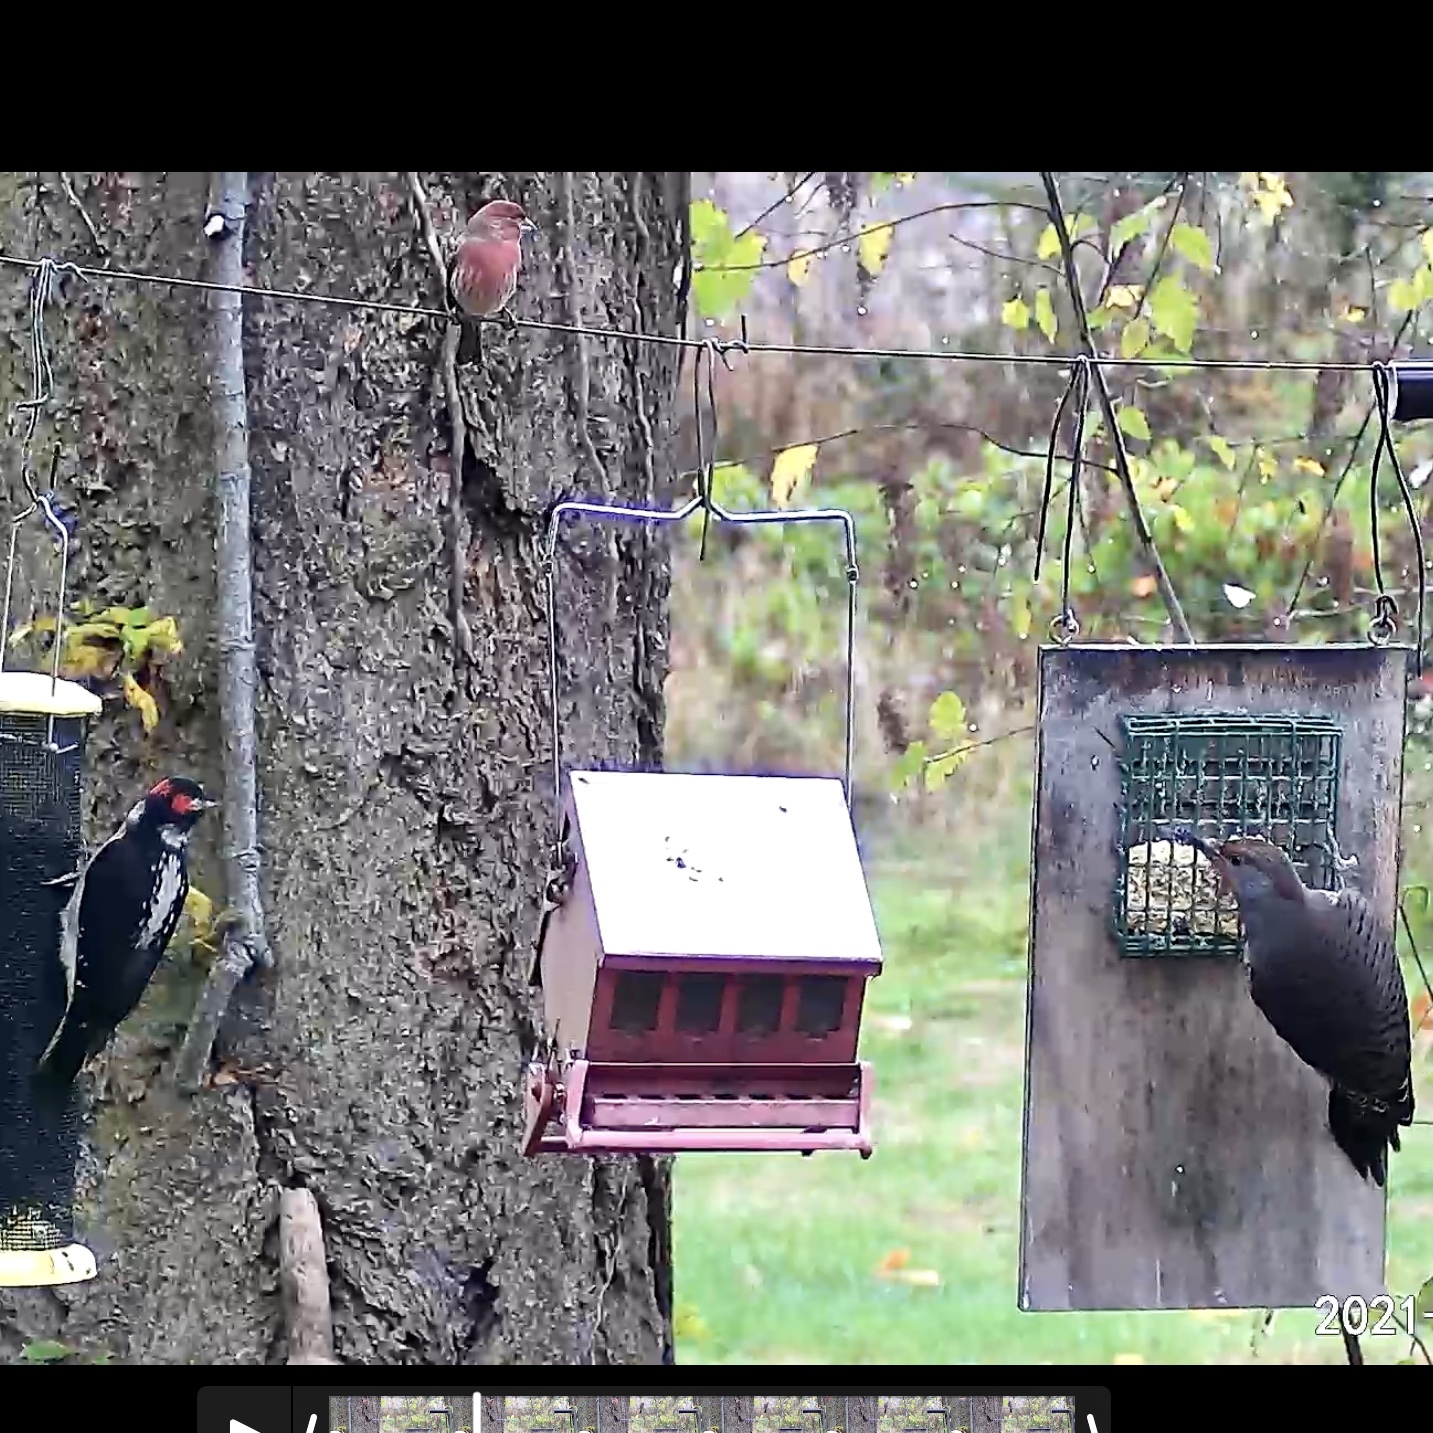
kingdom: Animalia
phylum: Chordata
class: Aves
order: Piciformes
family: Picidae
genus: Leuconotopicus
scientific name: Leuconotopicus villosus
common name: Hairy woodpecker
